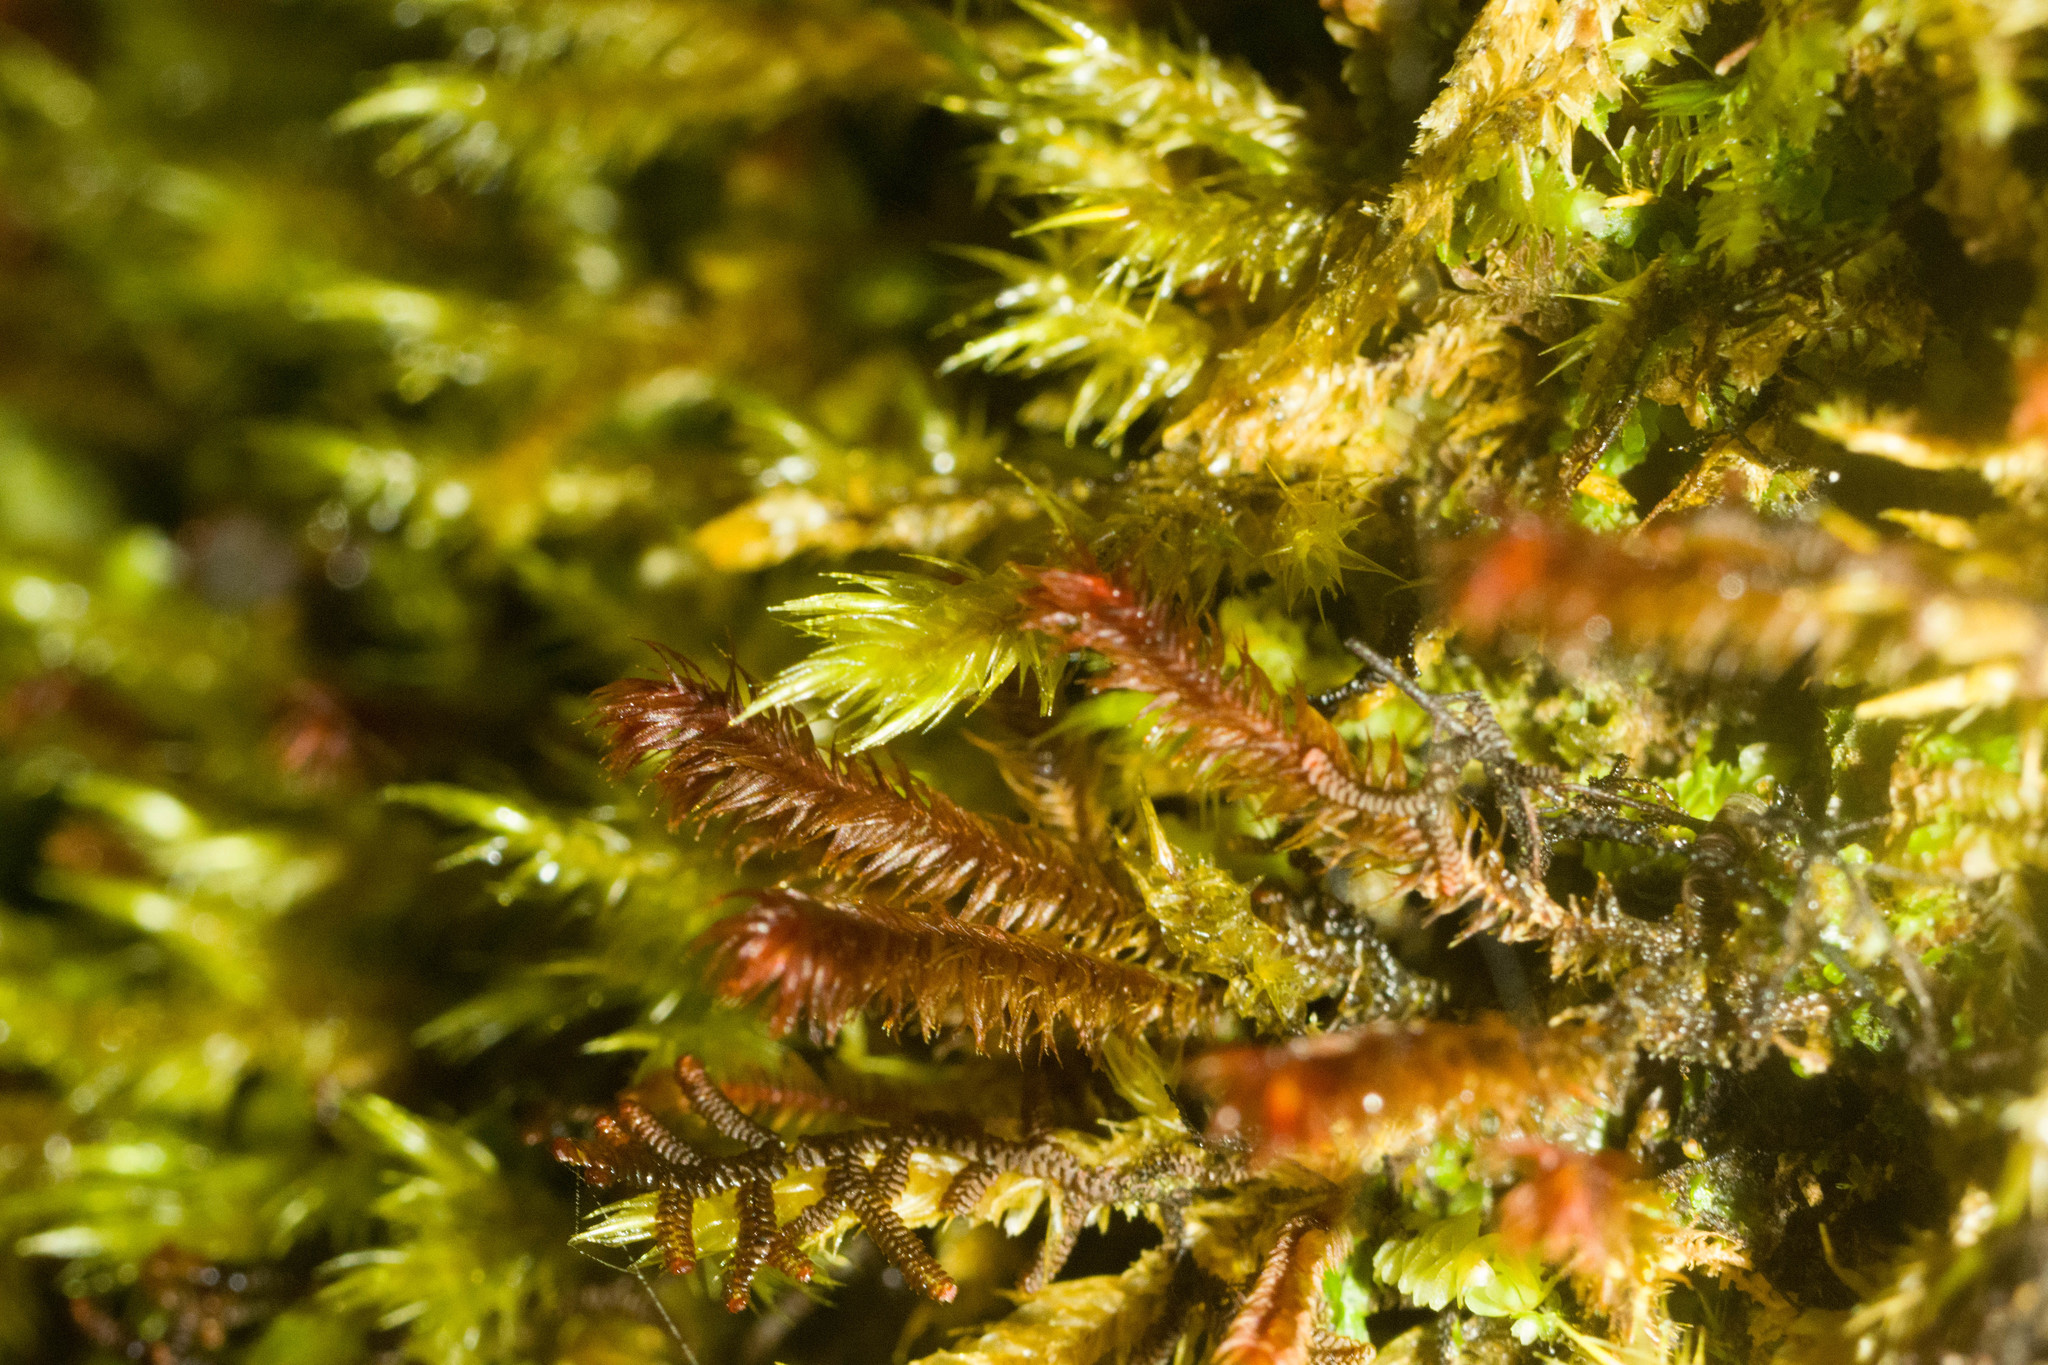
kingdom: Plantae
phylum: Marchantiophyta
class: Jungermanniopsida
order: Jungermanniales
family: Herbertaceae
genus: Herbertus
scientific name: Herbertus aduncus
